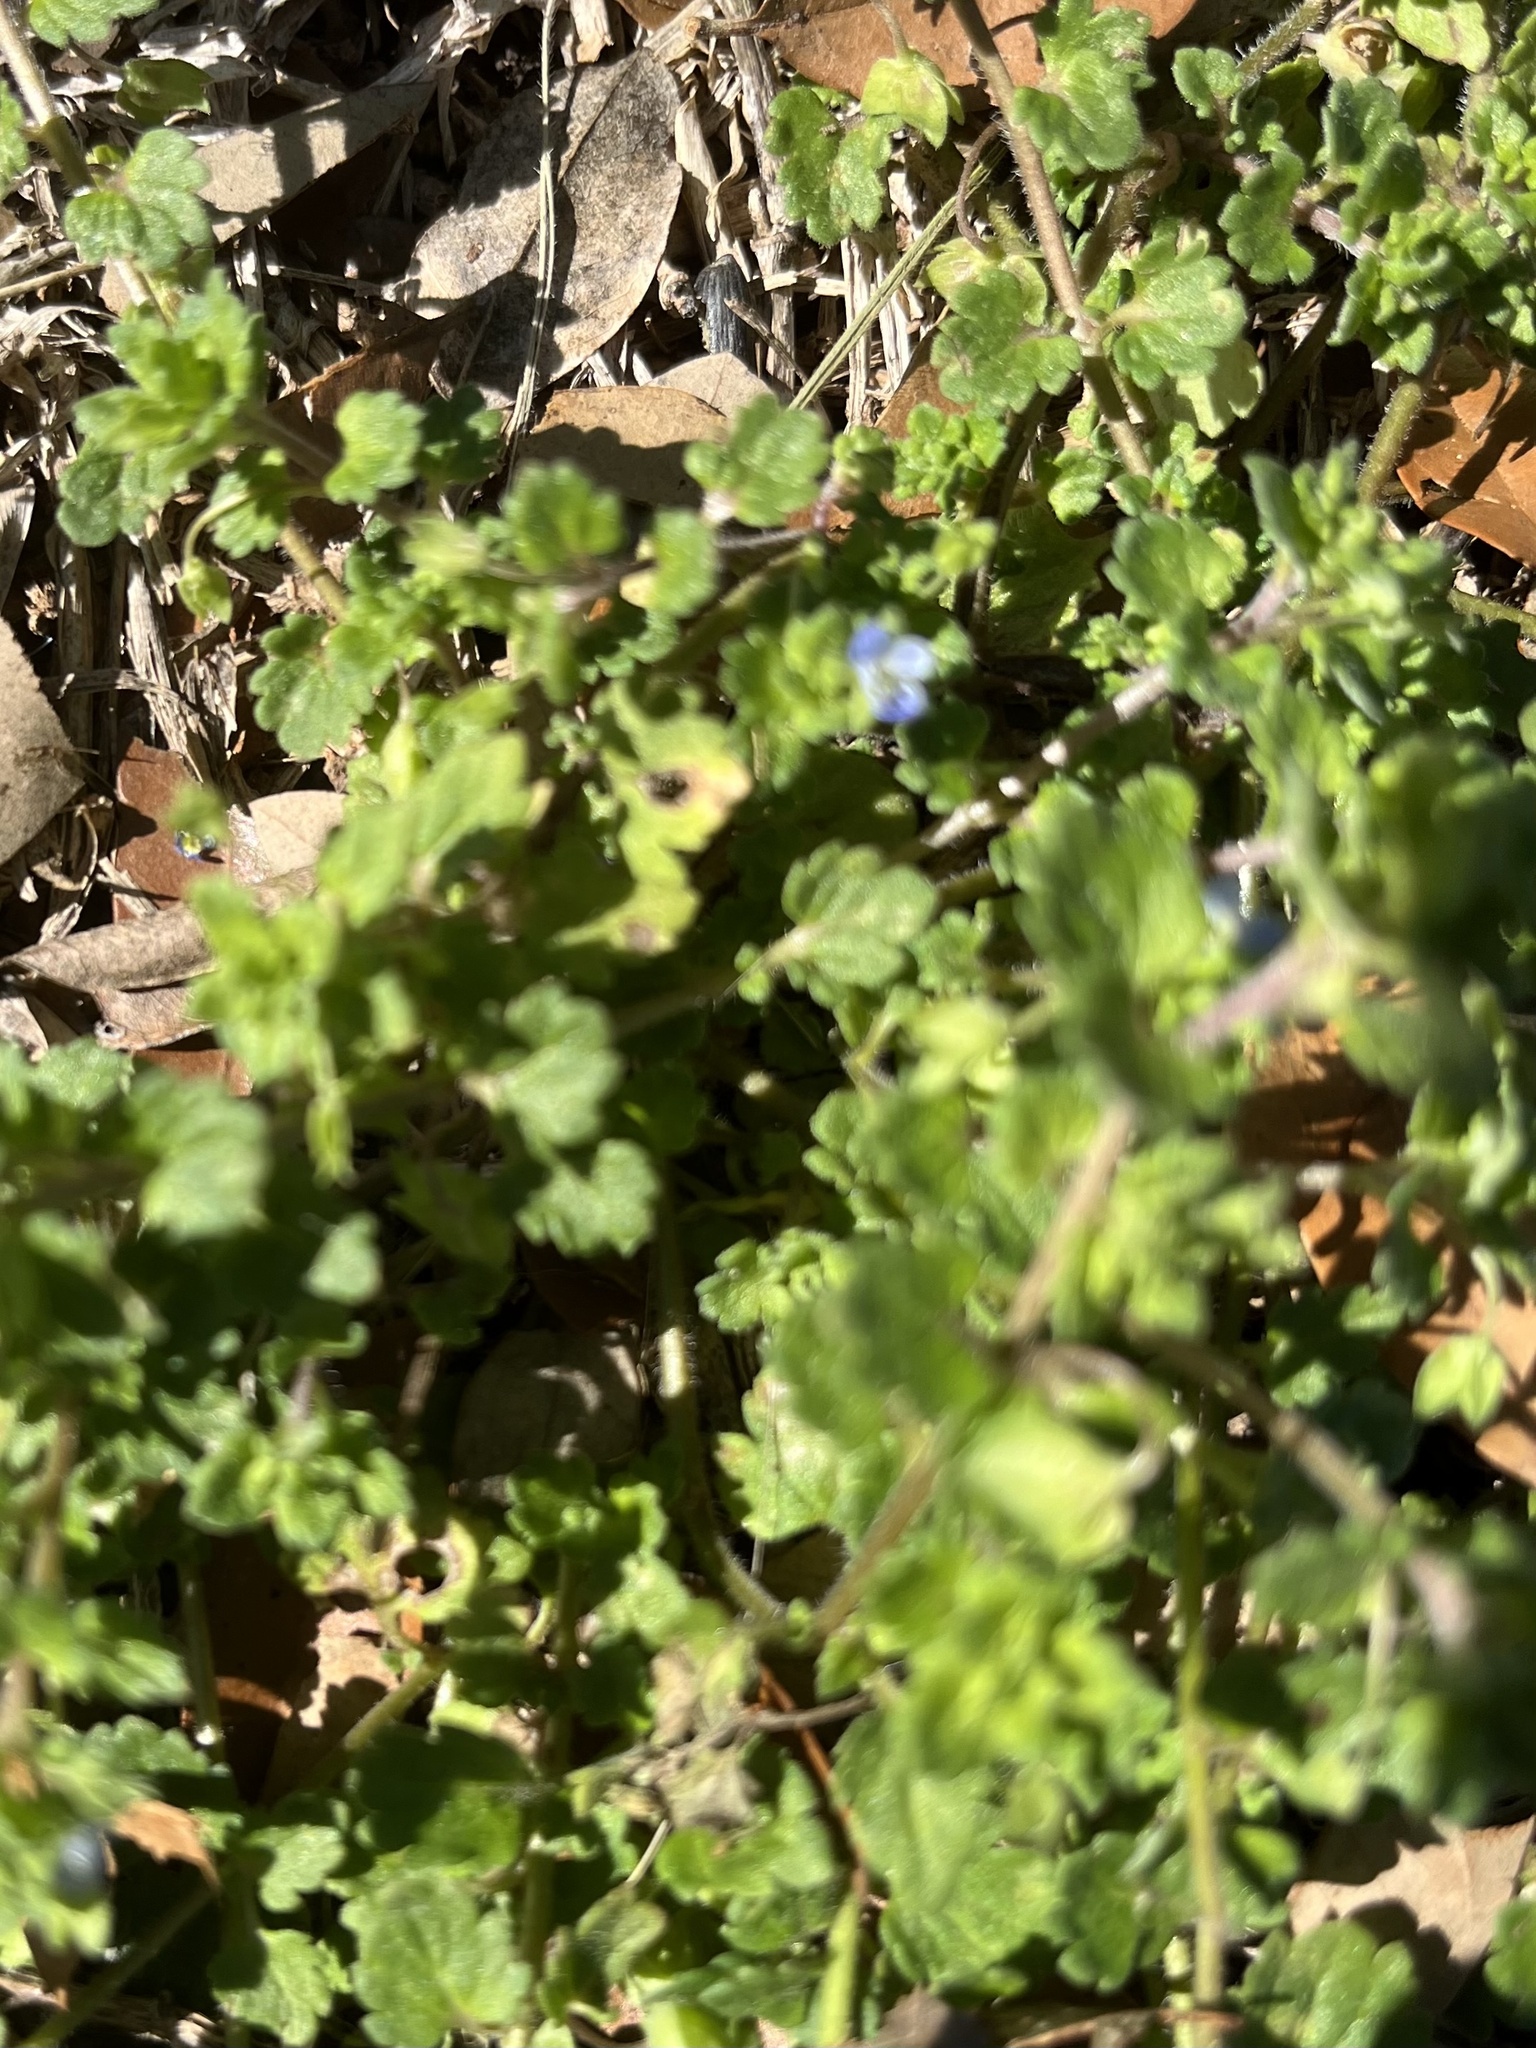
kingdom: Plantae
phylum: Tracheophyta
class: Magnoliopsida
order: Lamiales
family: Plantaginaceae
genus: Veronica
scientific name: Veronica polita
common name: Grey field-speedwell
